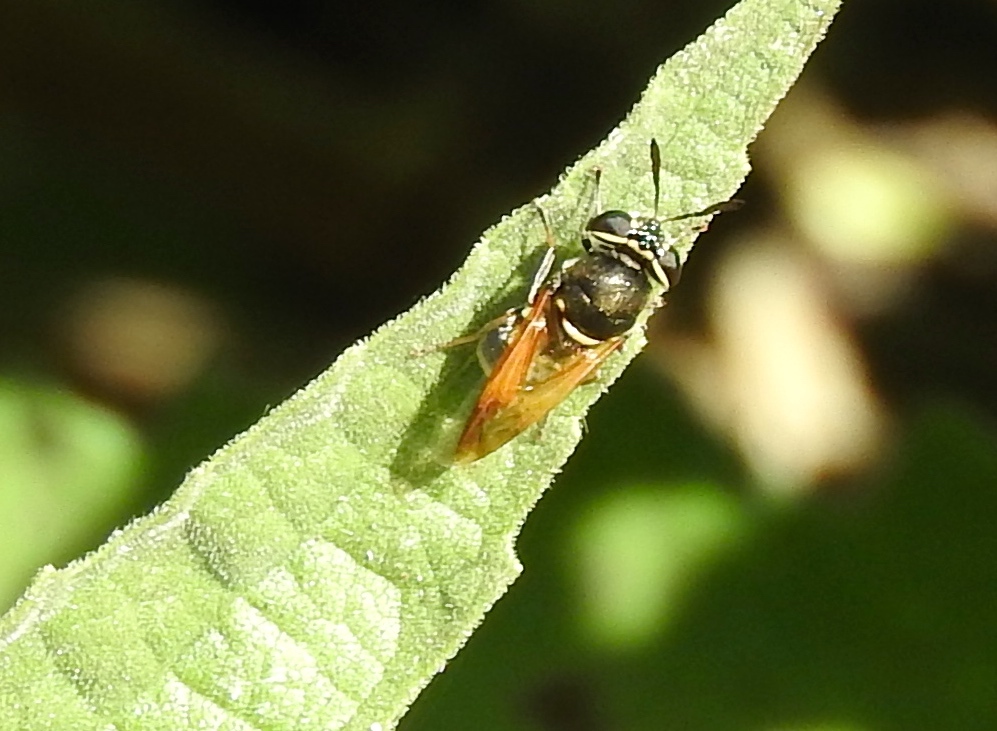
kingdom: Animalia
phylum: Arthropoda
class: Insecta
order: Diptera
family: Stratiomyidae
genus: Hoplitimyia
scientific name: Hoplitimyia
